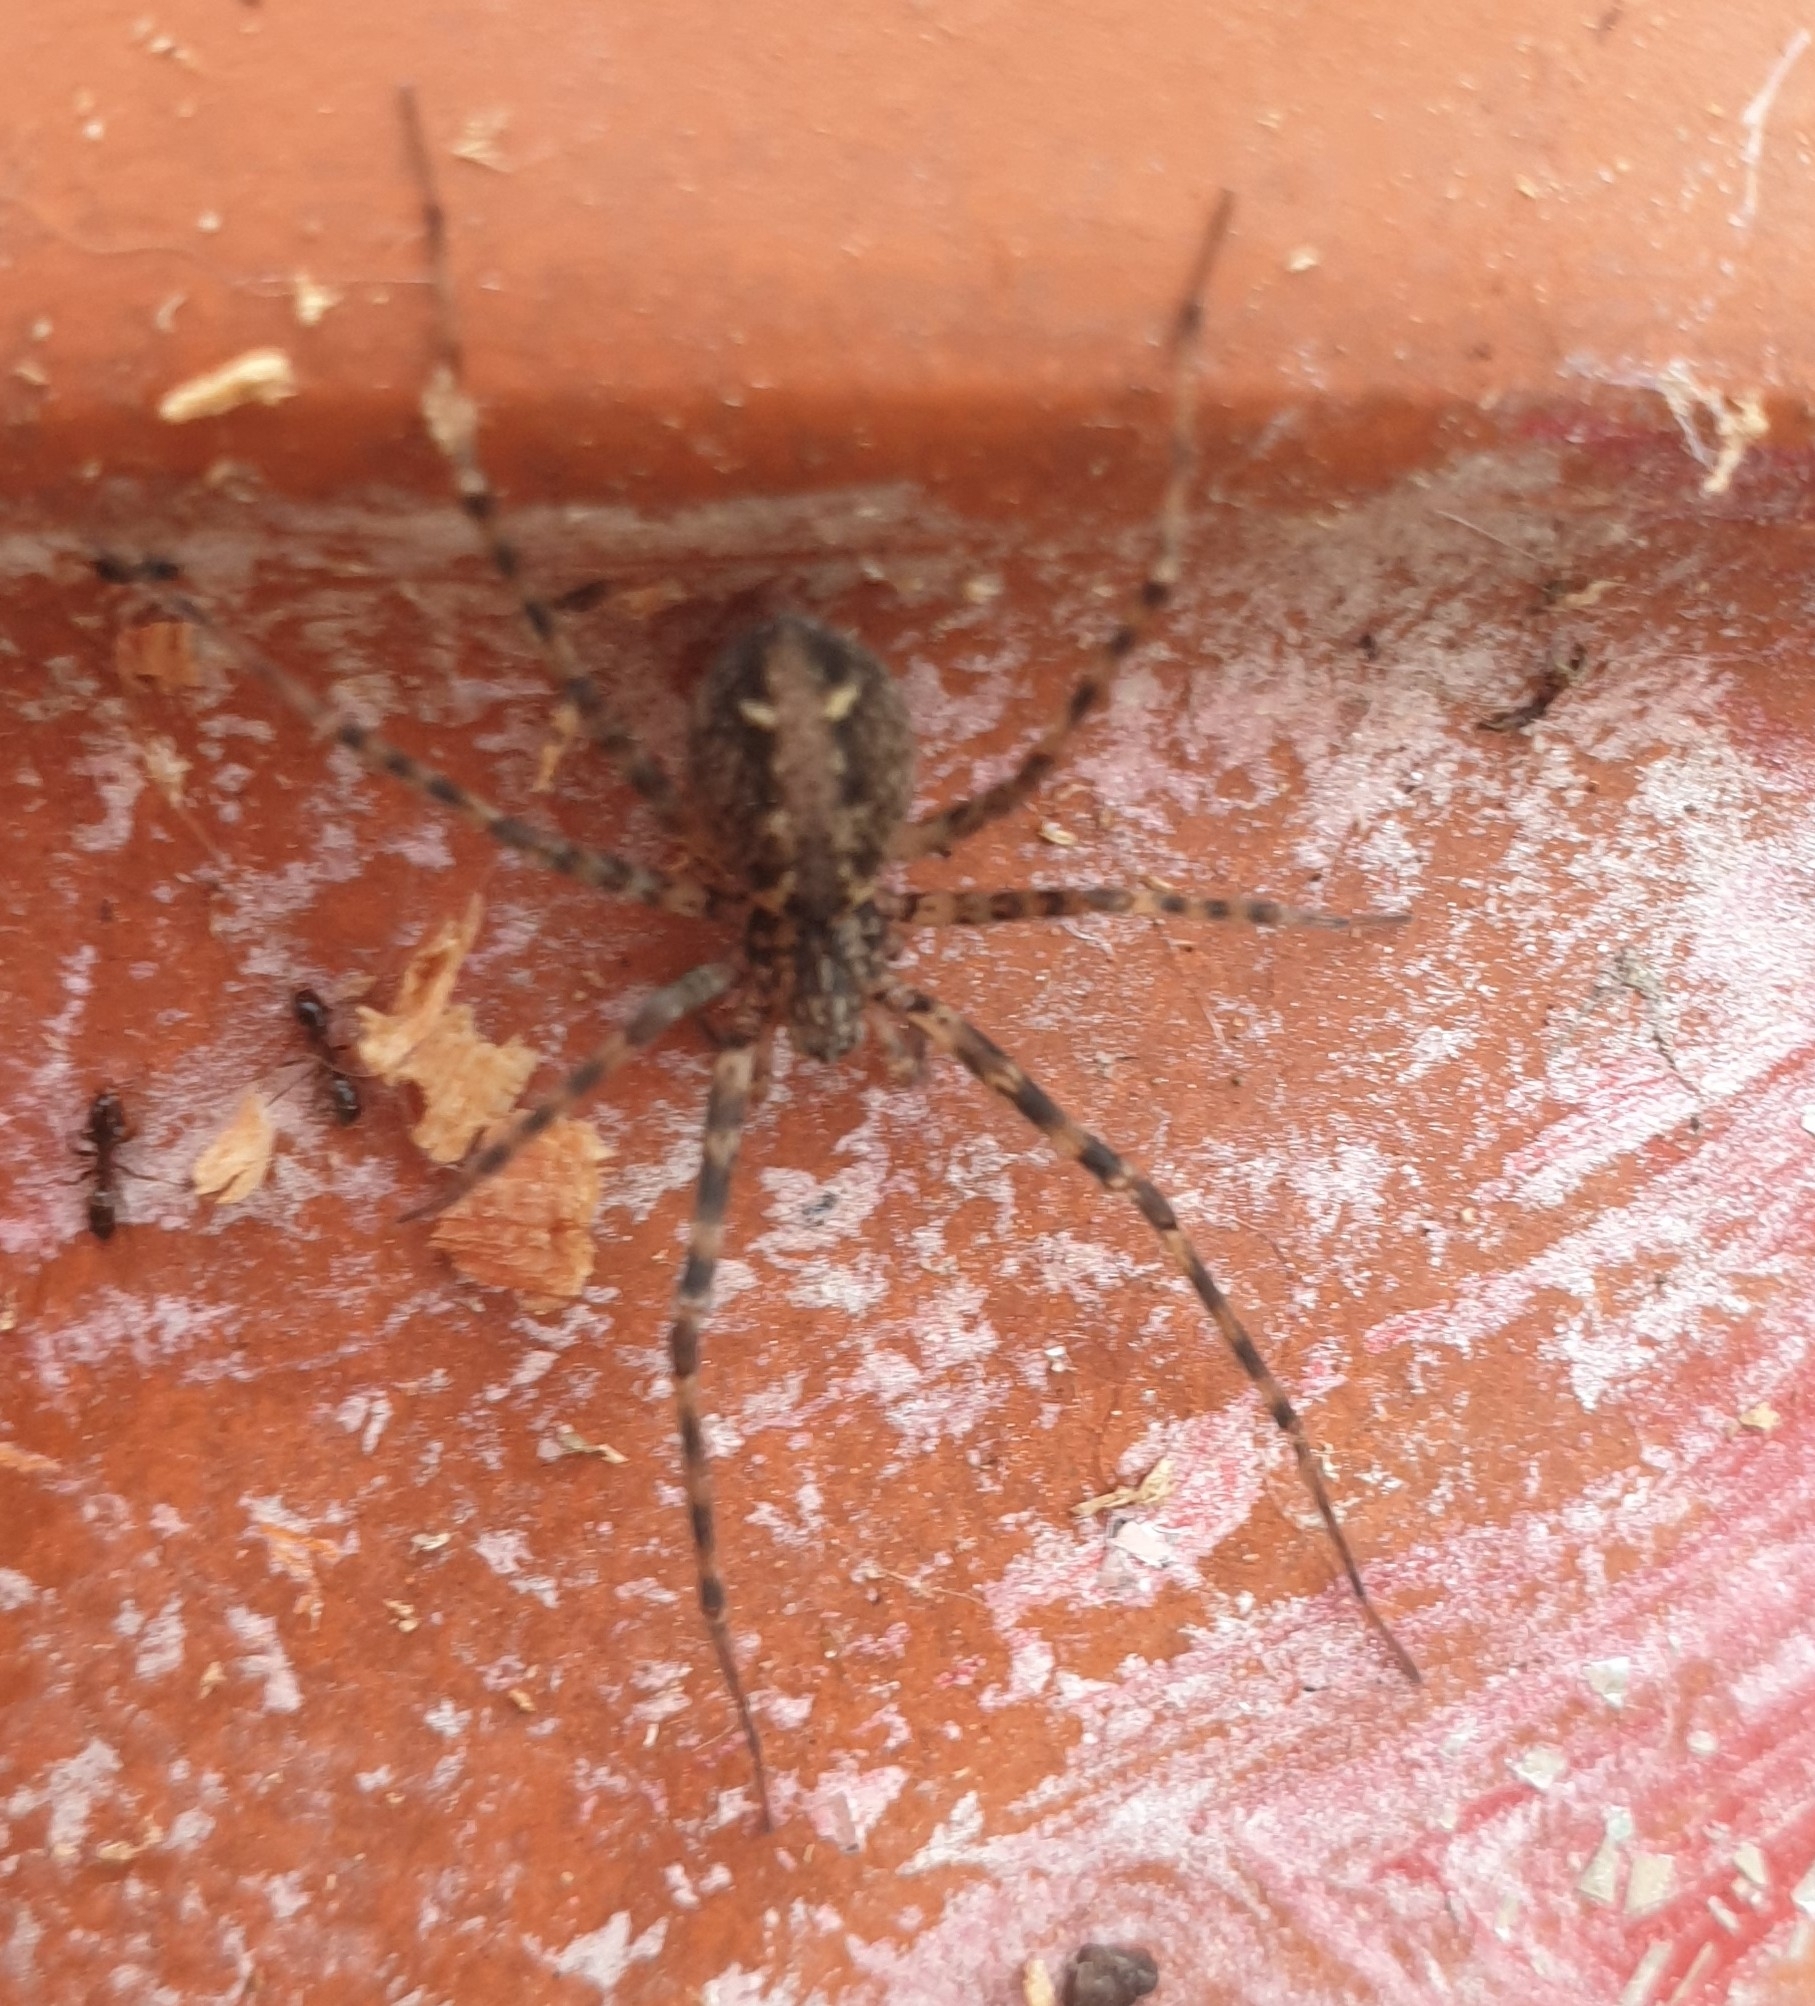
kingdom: Animalia
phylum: Arthropoda
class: Arachnida
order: Araneae
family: Stiphidiidae
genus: Stiphidion
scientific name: Stiphidion facetum
